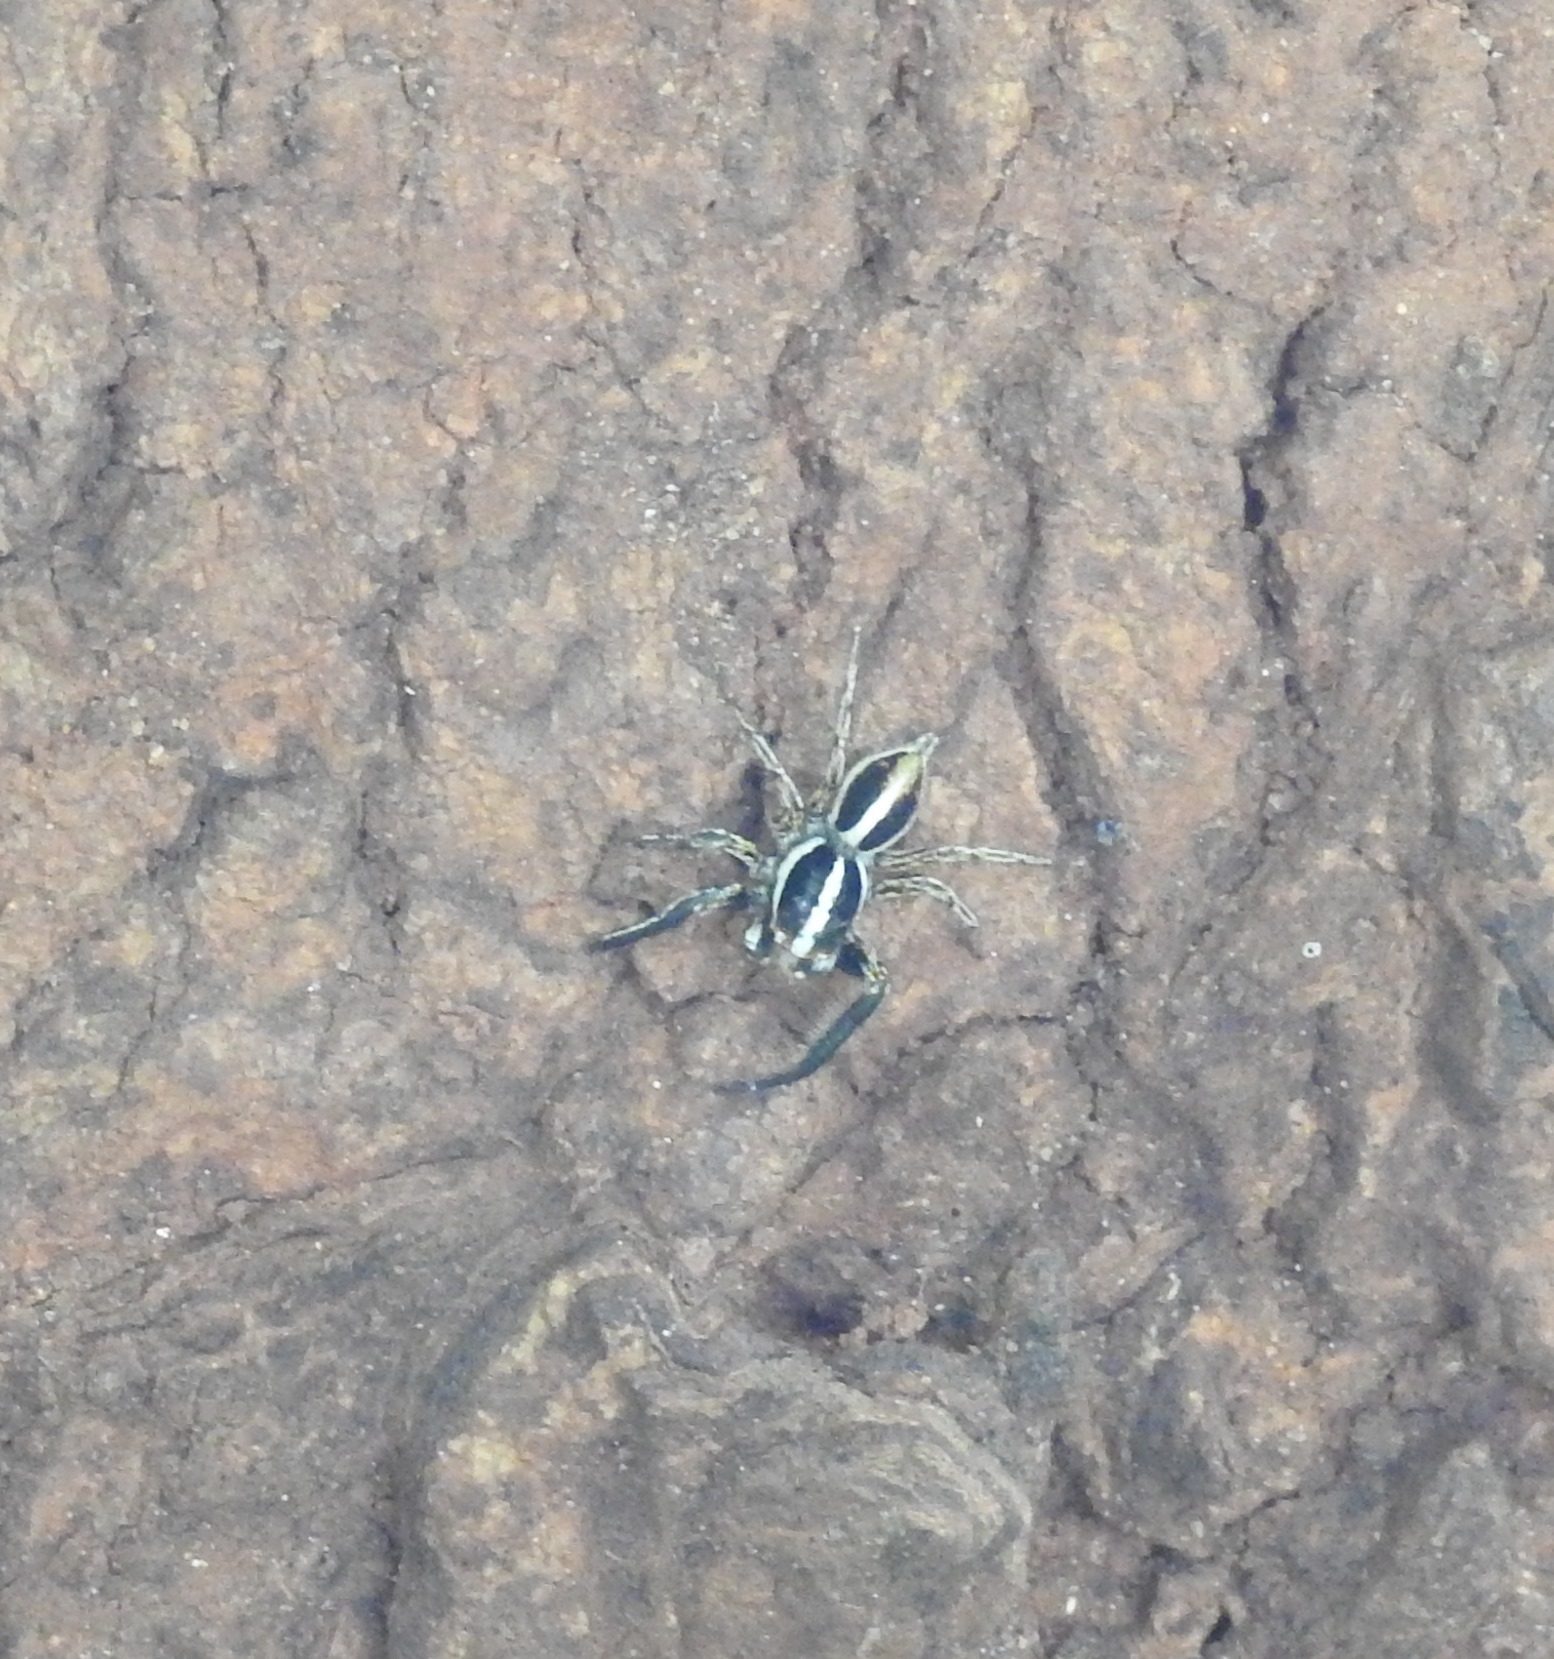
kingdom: Animalia
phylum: Arthropoda
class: Arachnida
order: Araneae
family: Salticidae
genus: Plexippus
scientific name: Plexippus paykulli
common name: Pantropical jumper
